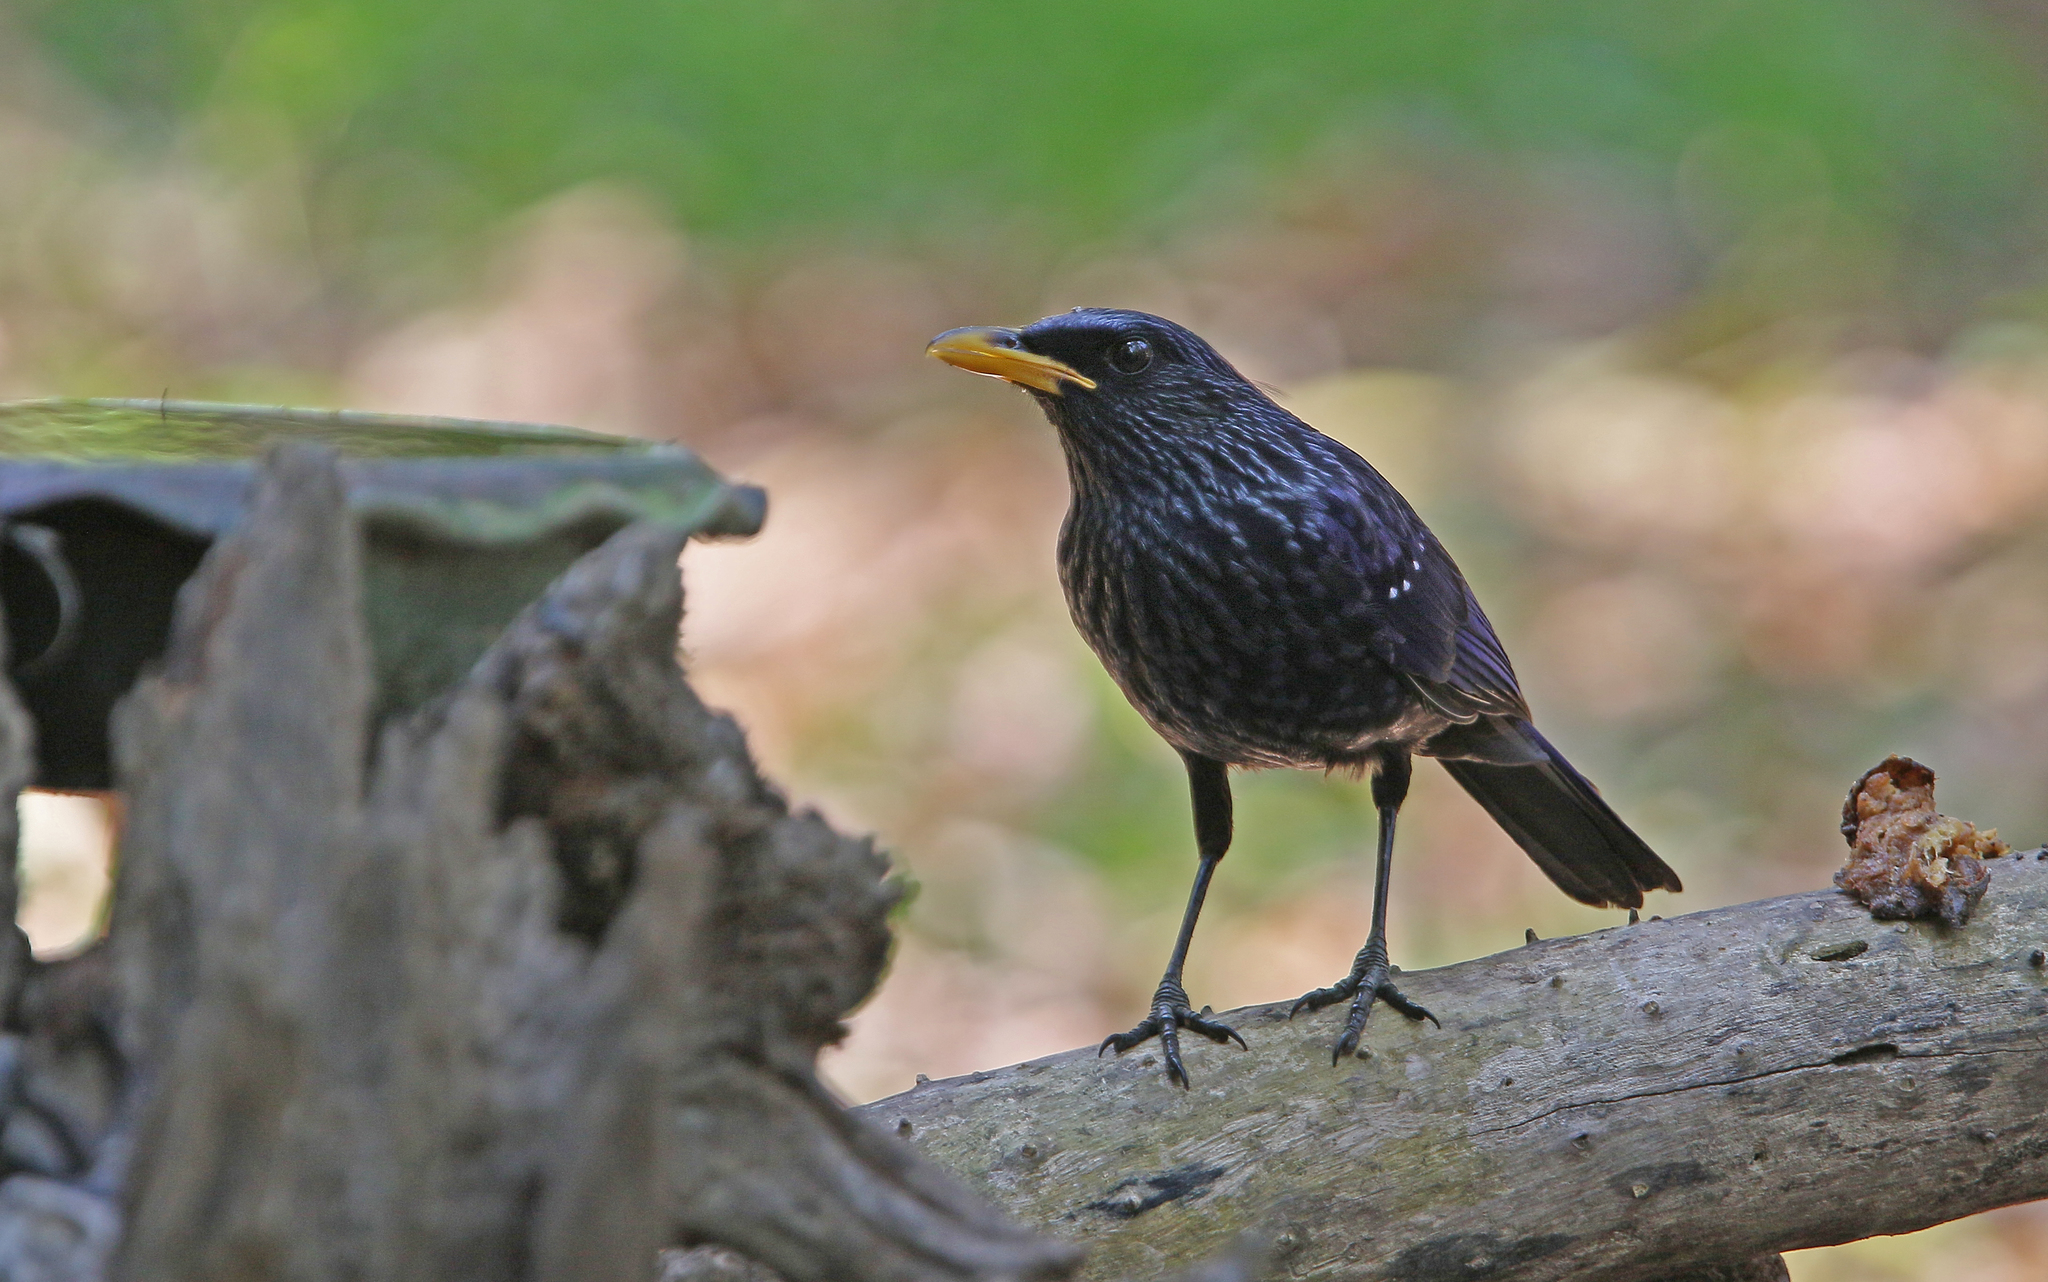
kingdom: Animalia
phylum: Chordata
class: Aves
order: Passeriformes
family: Muscicapidae
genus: Myophonus
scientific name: Myophonus caeruleus
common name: Blue whistling-thrush
